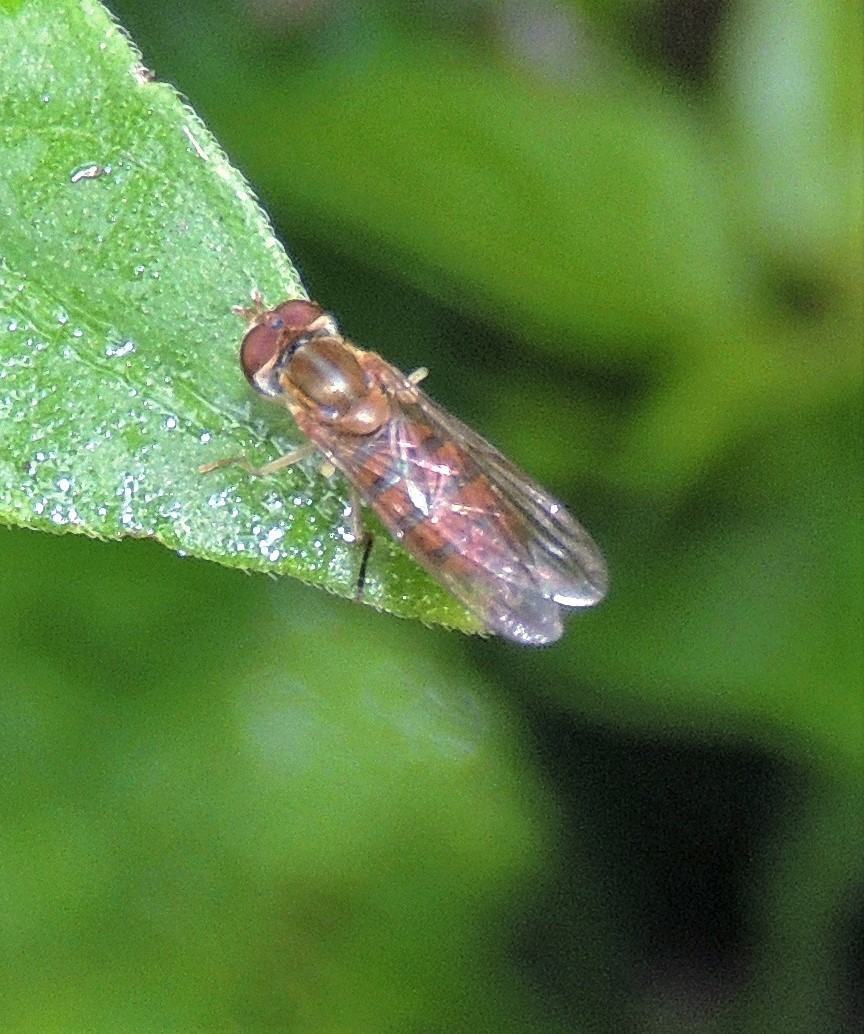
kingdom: Animalia
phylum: Arthropoda
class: Insecta
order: Diptera
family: Syrphidae
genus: Toxomerus
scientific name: Toxomerus
